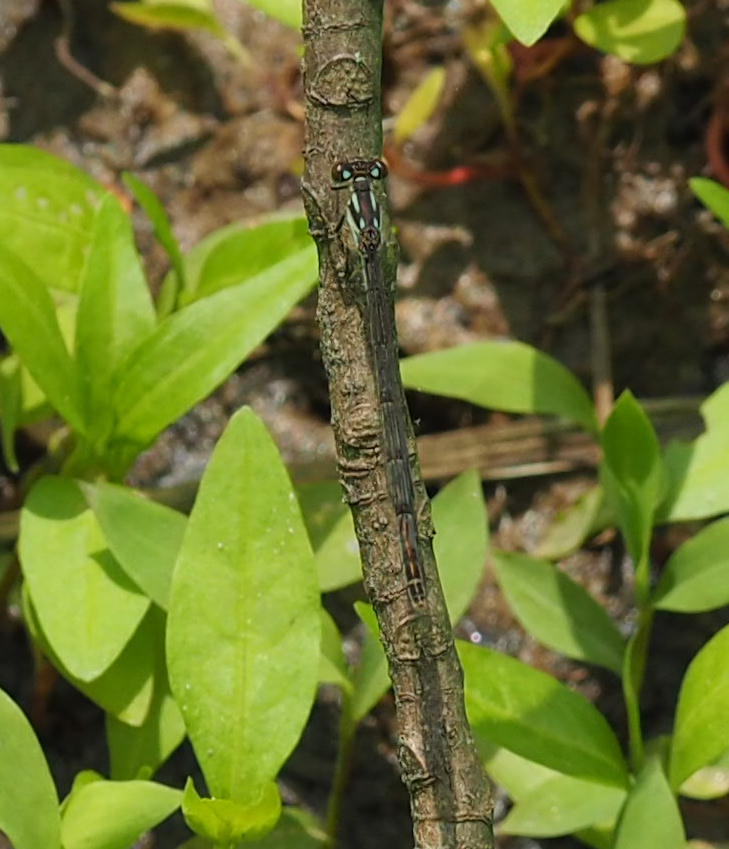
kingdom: Animalia
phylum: Arthropoda
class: Insecta
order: Odonata
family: Coenagrionidae
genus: Ischnura
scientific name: Ischnura posita
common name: Fragile forktail
